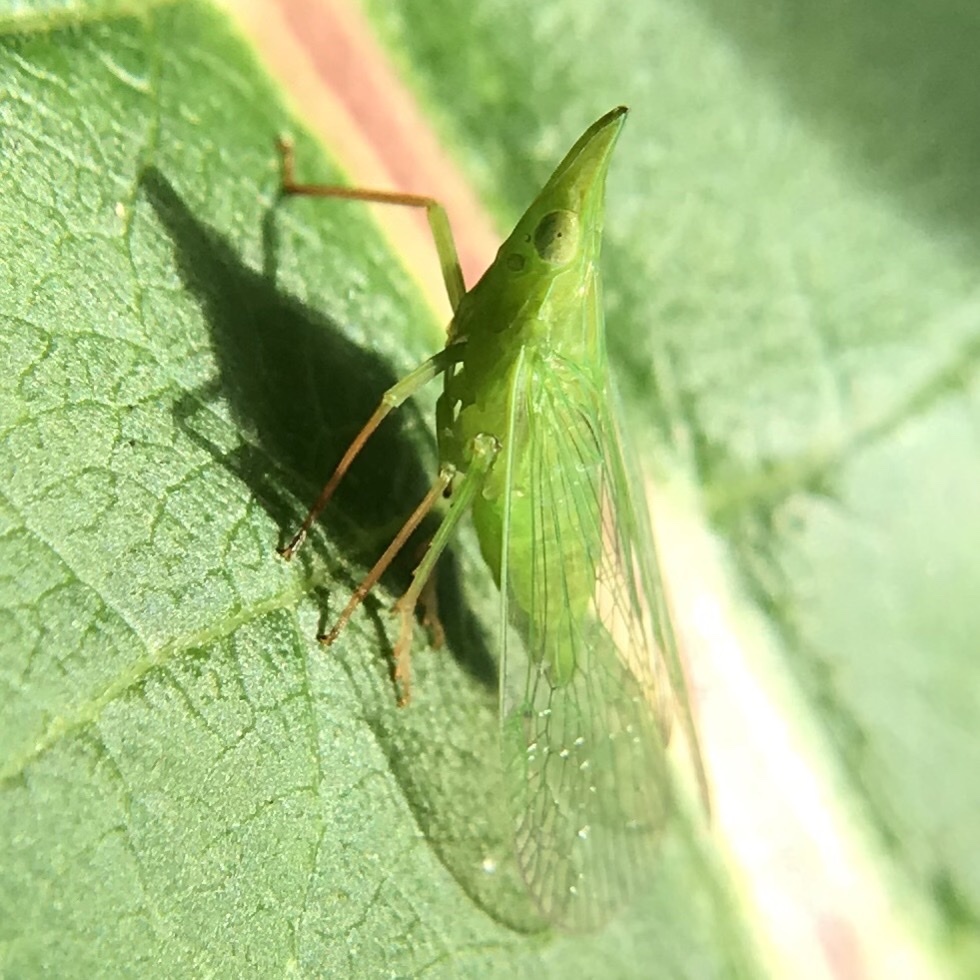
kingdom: Animalia
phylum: Arthropoda
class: Insecta
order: Hemiptera
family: Dictyopharidae
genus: Rhynchomitra
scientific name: Rhynchomitra microrhina
